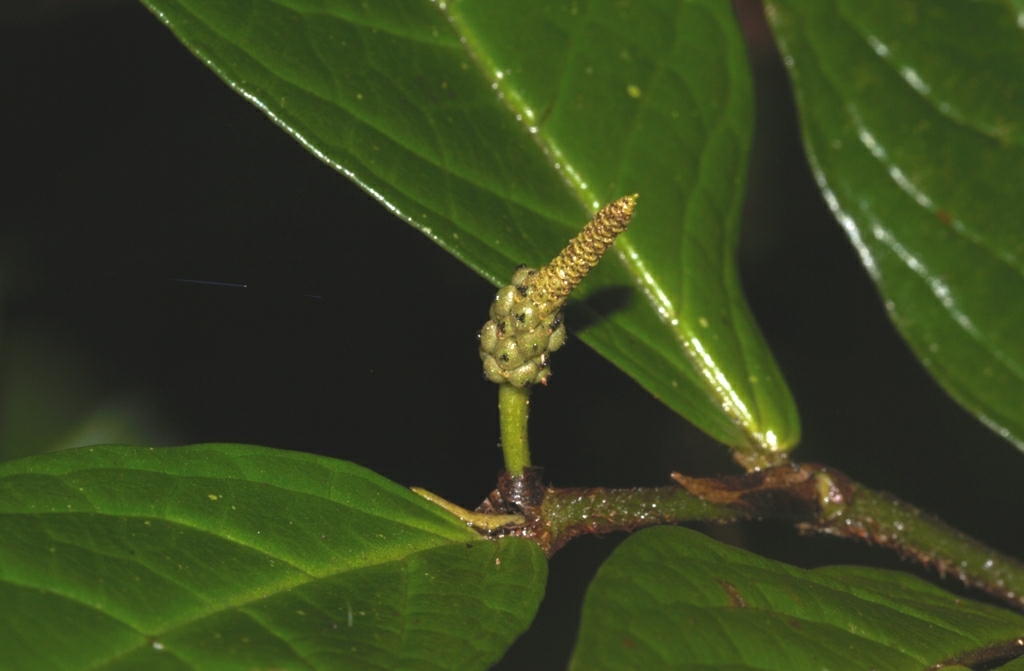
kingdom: Plantae
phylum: Tracheophyta
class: Magnoliopsida
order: Piperales
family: Piperaceae
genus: Piper
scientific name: Piper paramaribense
